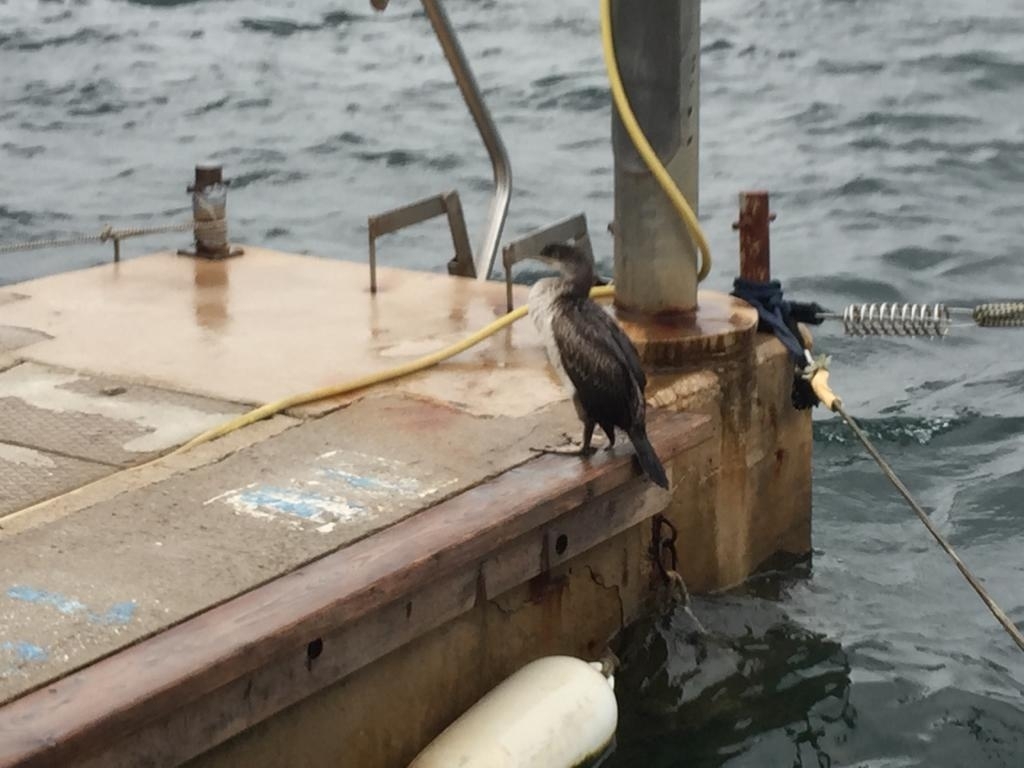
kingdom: Animalia
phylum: Chordata
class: Aves
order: Suliformes
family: Phalacrocoracidae
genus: Phalacrocorax
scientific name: Phalacrocorax aristotelis
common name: European shag
